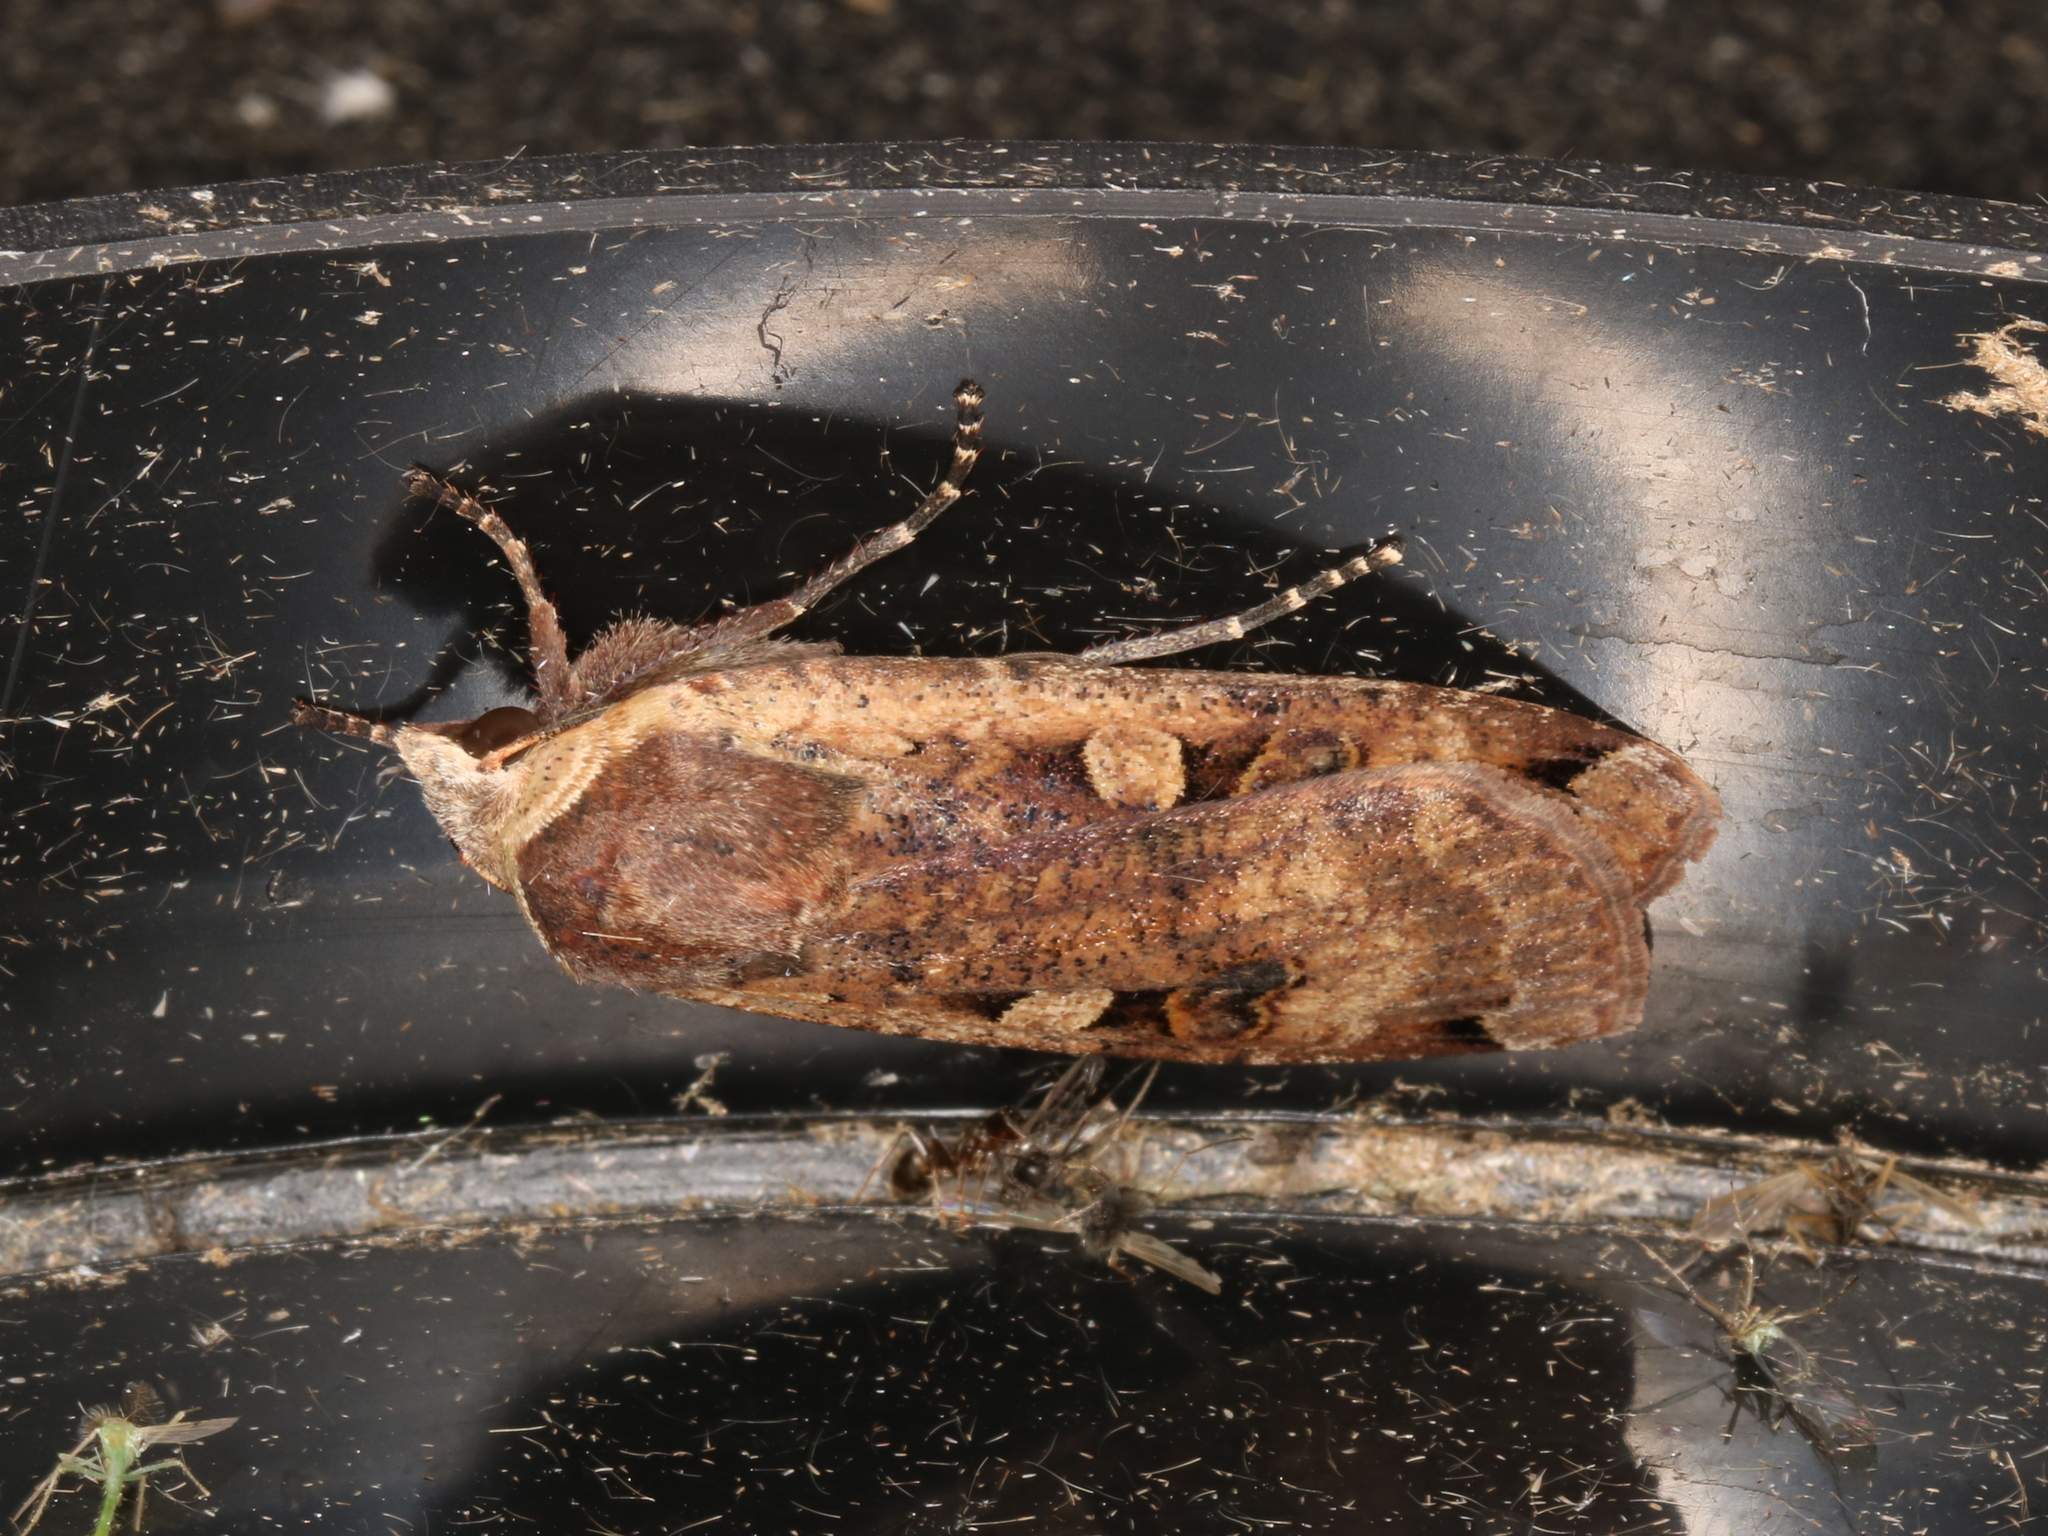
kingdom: Animalia
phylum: Arthropoda
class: Insecta
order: Lepidoptera
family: Noctuidae
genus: Noctua
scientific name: Noctua pronuba
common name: Large yellow underwing
